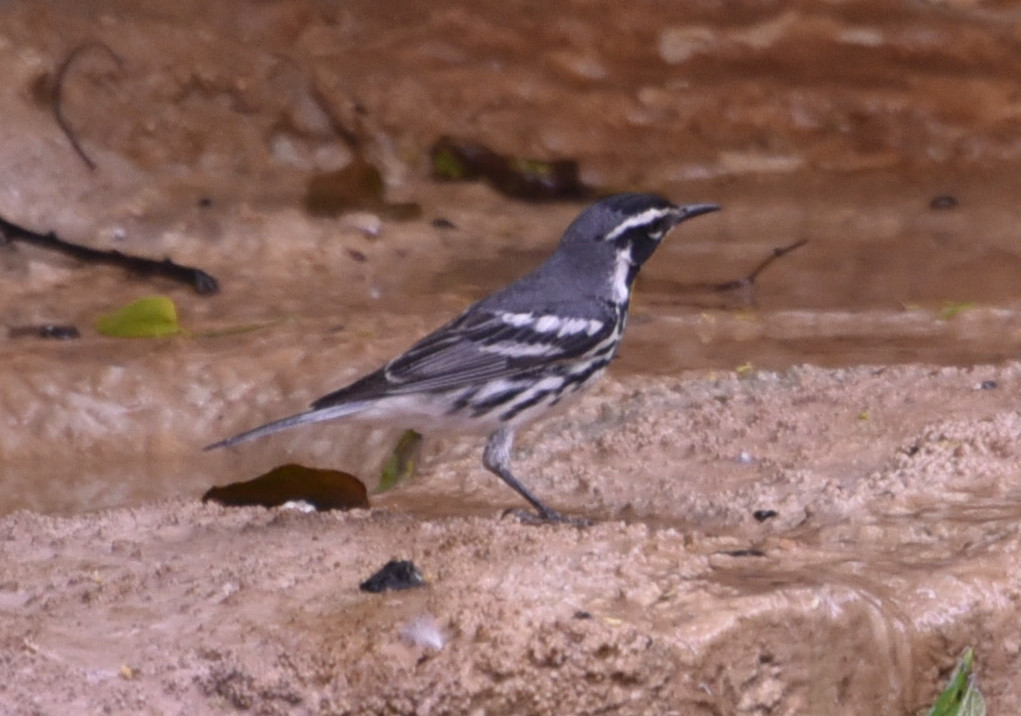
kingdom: Animalia
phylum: Chordata
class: Aves
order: Passeriformes
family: Parulidae
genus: Setophaga
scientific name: Setophaga dominica
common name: Yellow-throated warbler
